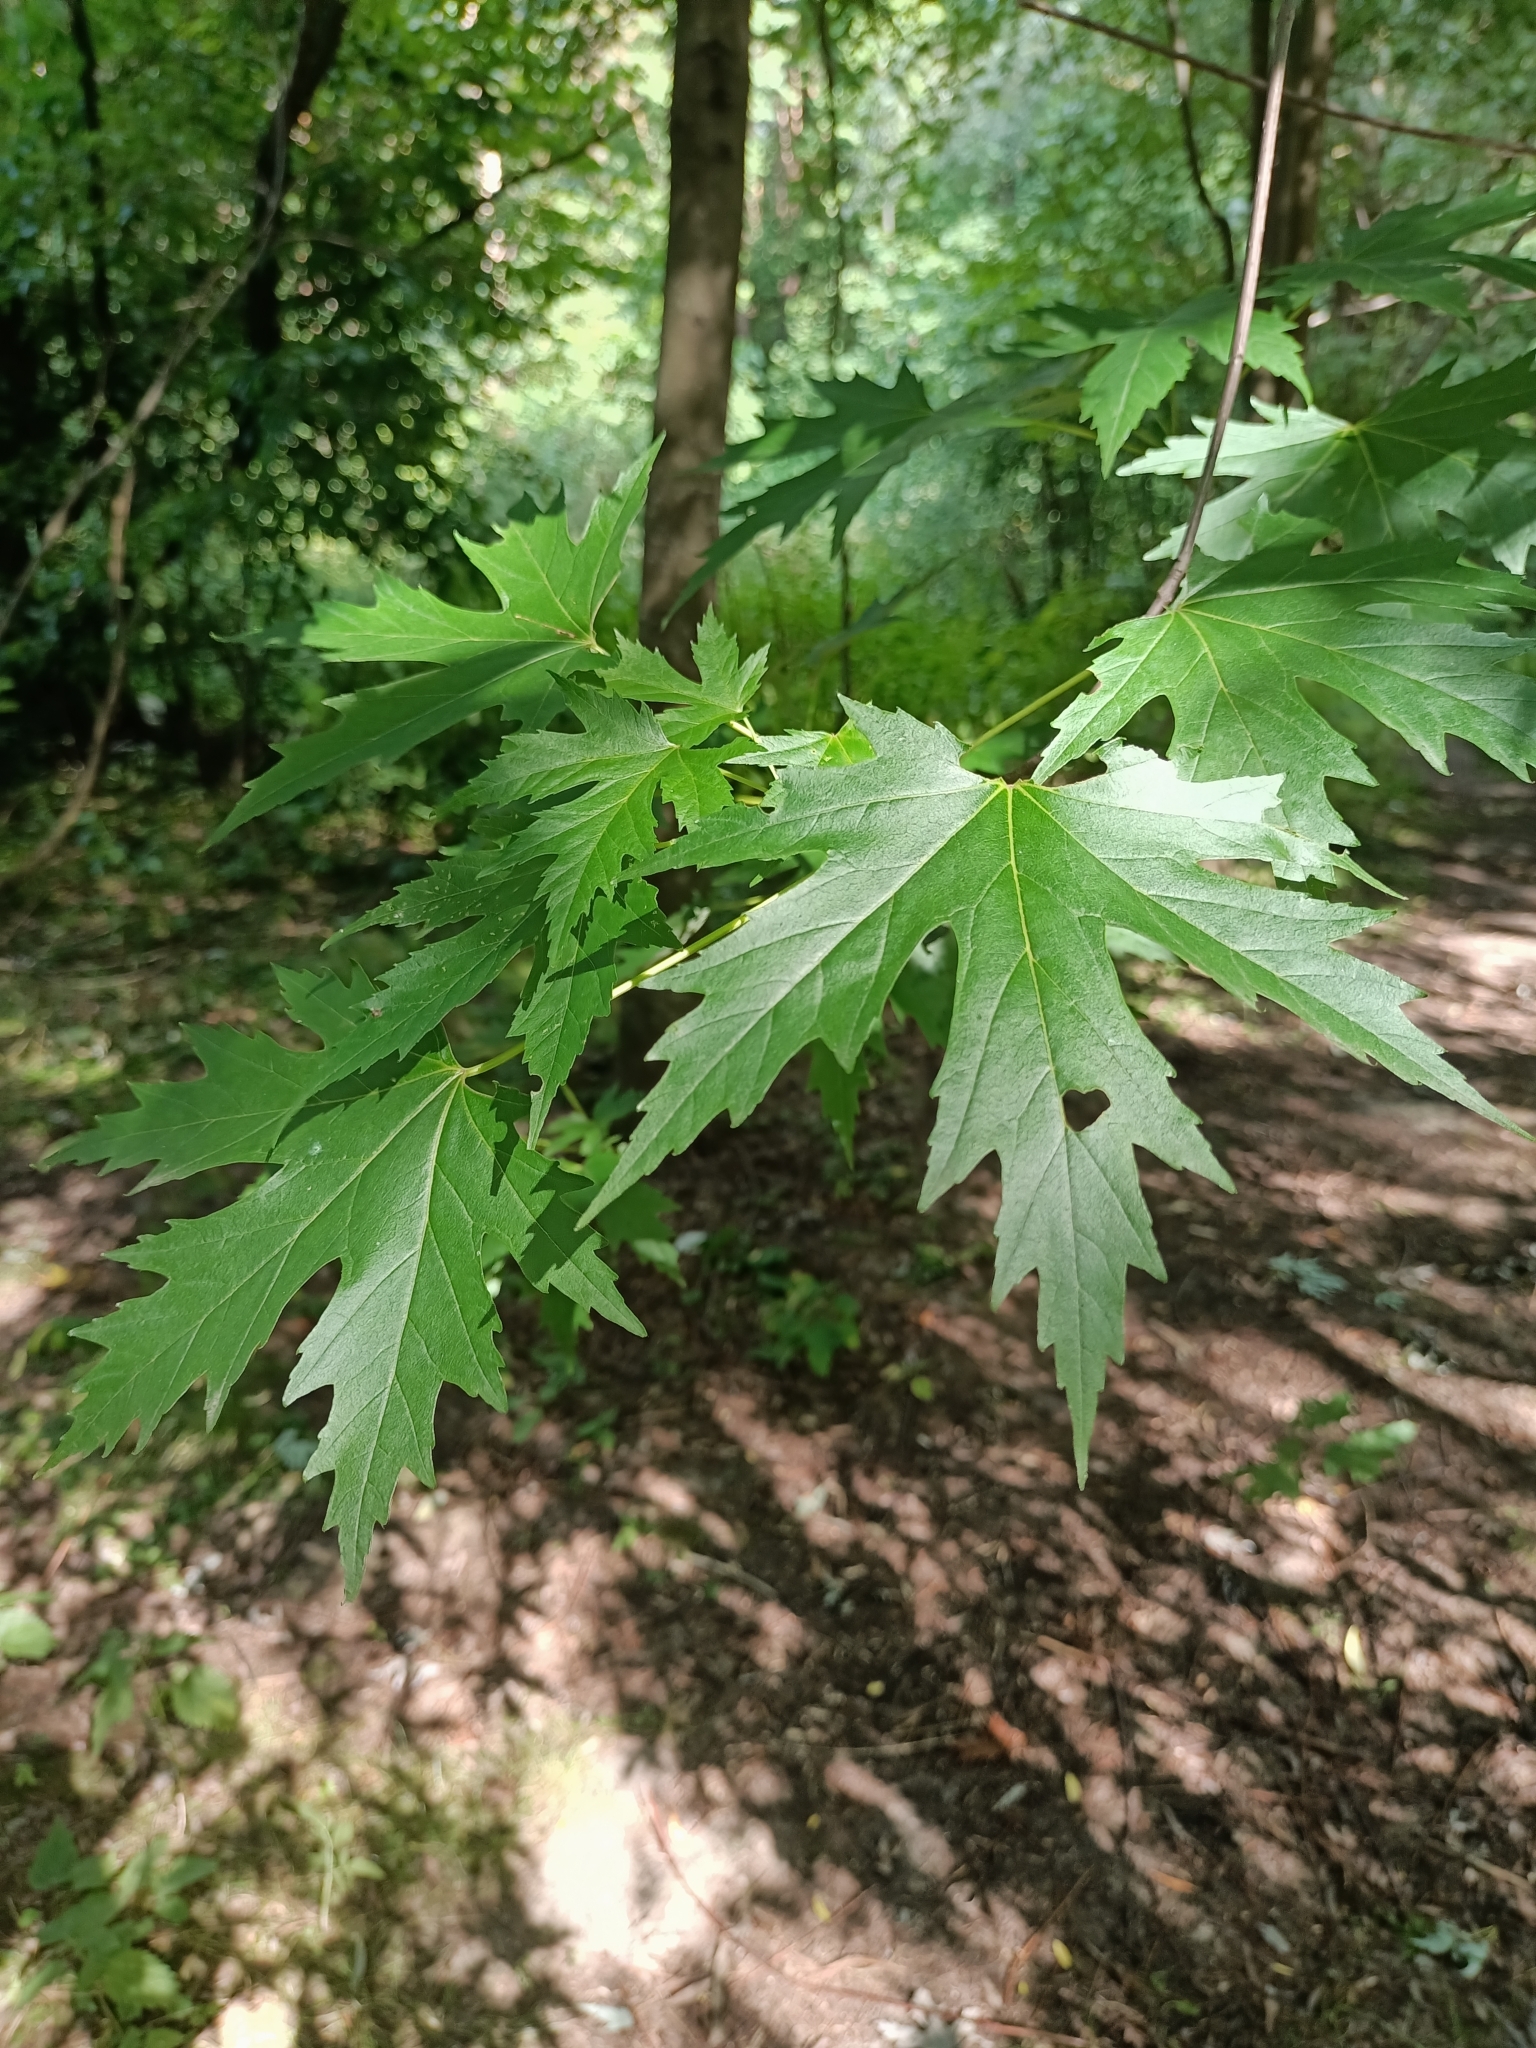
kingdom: Plantae
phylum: Tracheophyta
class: Magnoliopsida
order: Sapindales
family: Sapindaceae
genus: Acer
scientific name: Acer saccharinum
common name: Silver maple
